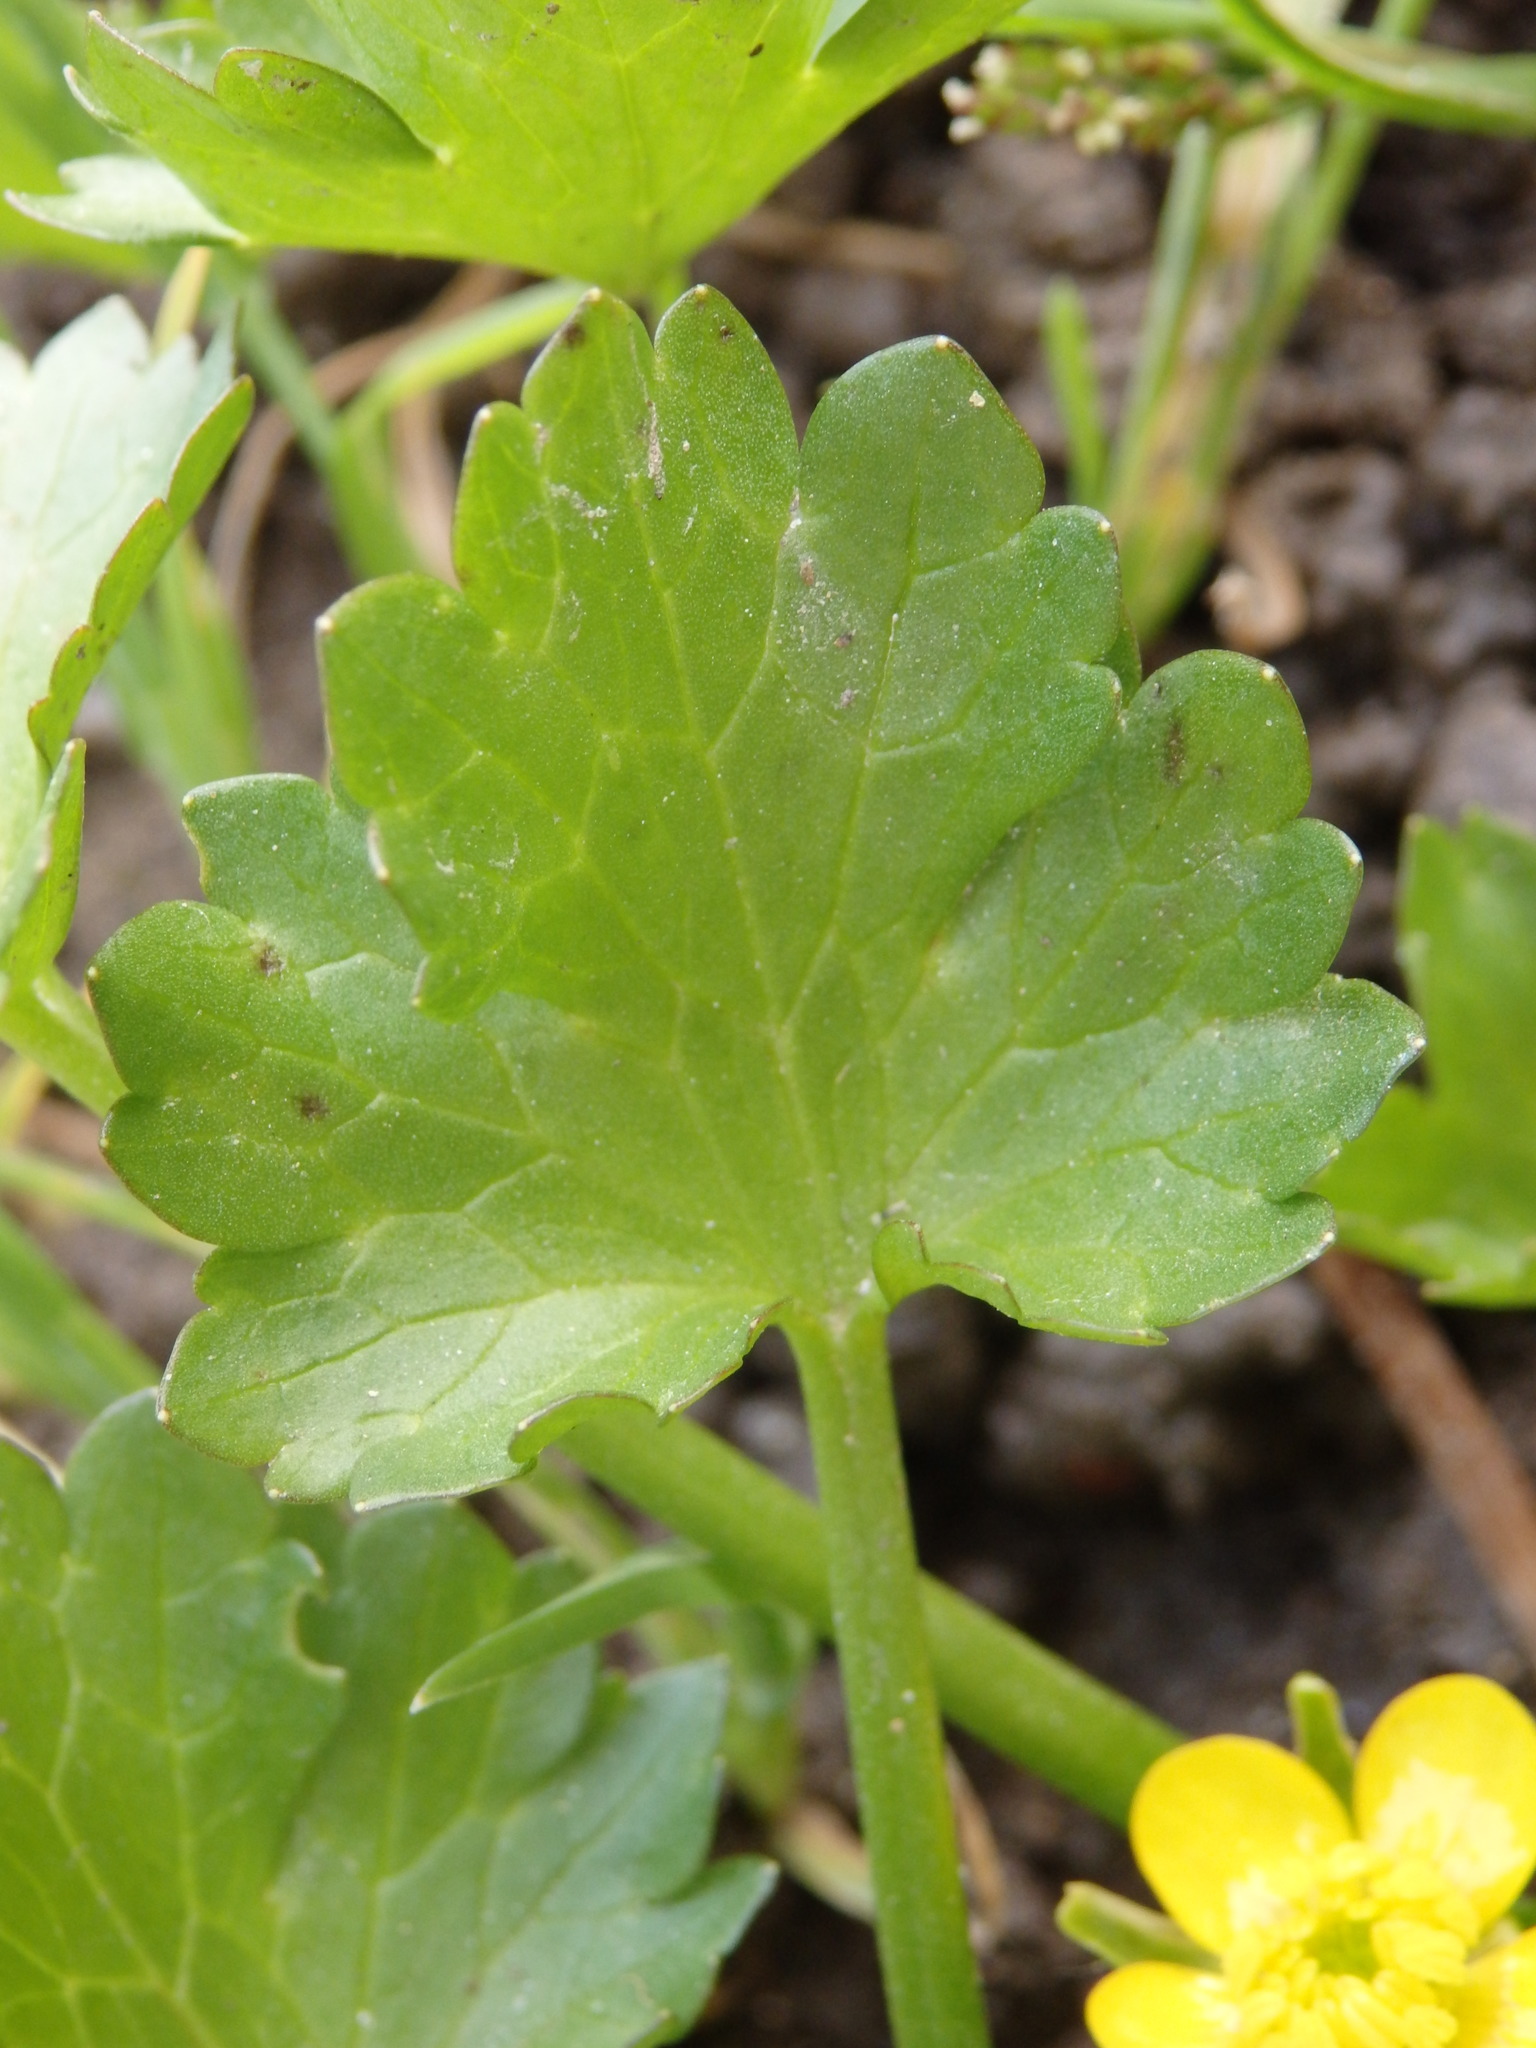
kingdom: Plantae
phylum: Tracheophyta
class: Magnoliopsida
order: Ranunculales
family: Ranunculaceae
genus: Ranunculus
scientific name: Ranunculus muricatus
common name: Rough-fruited buttercup
